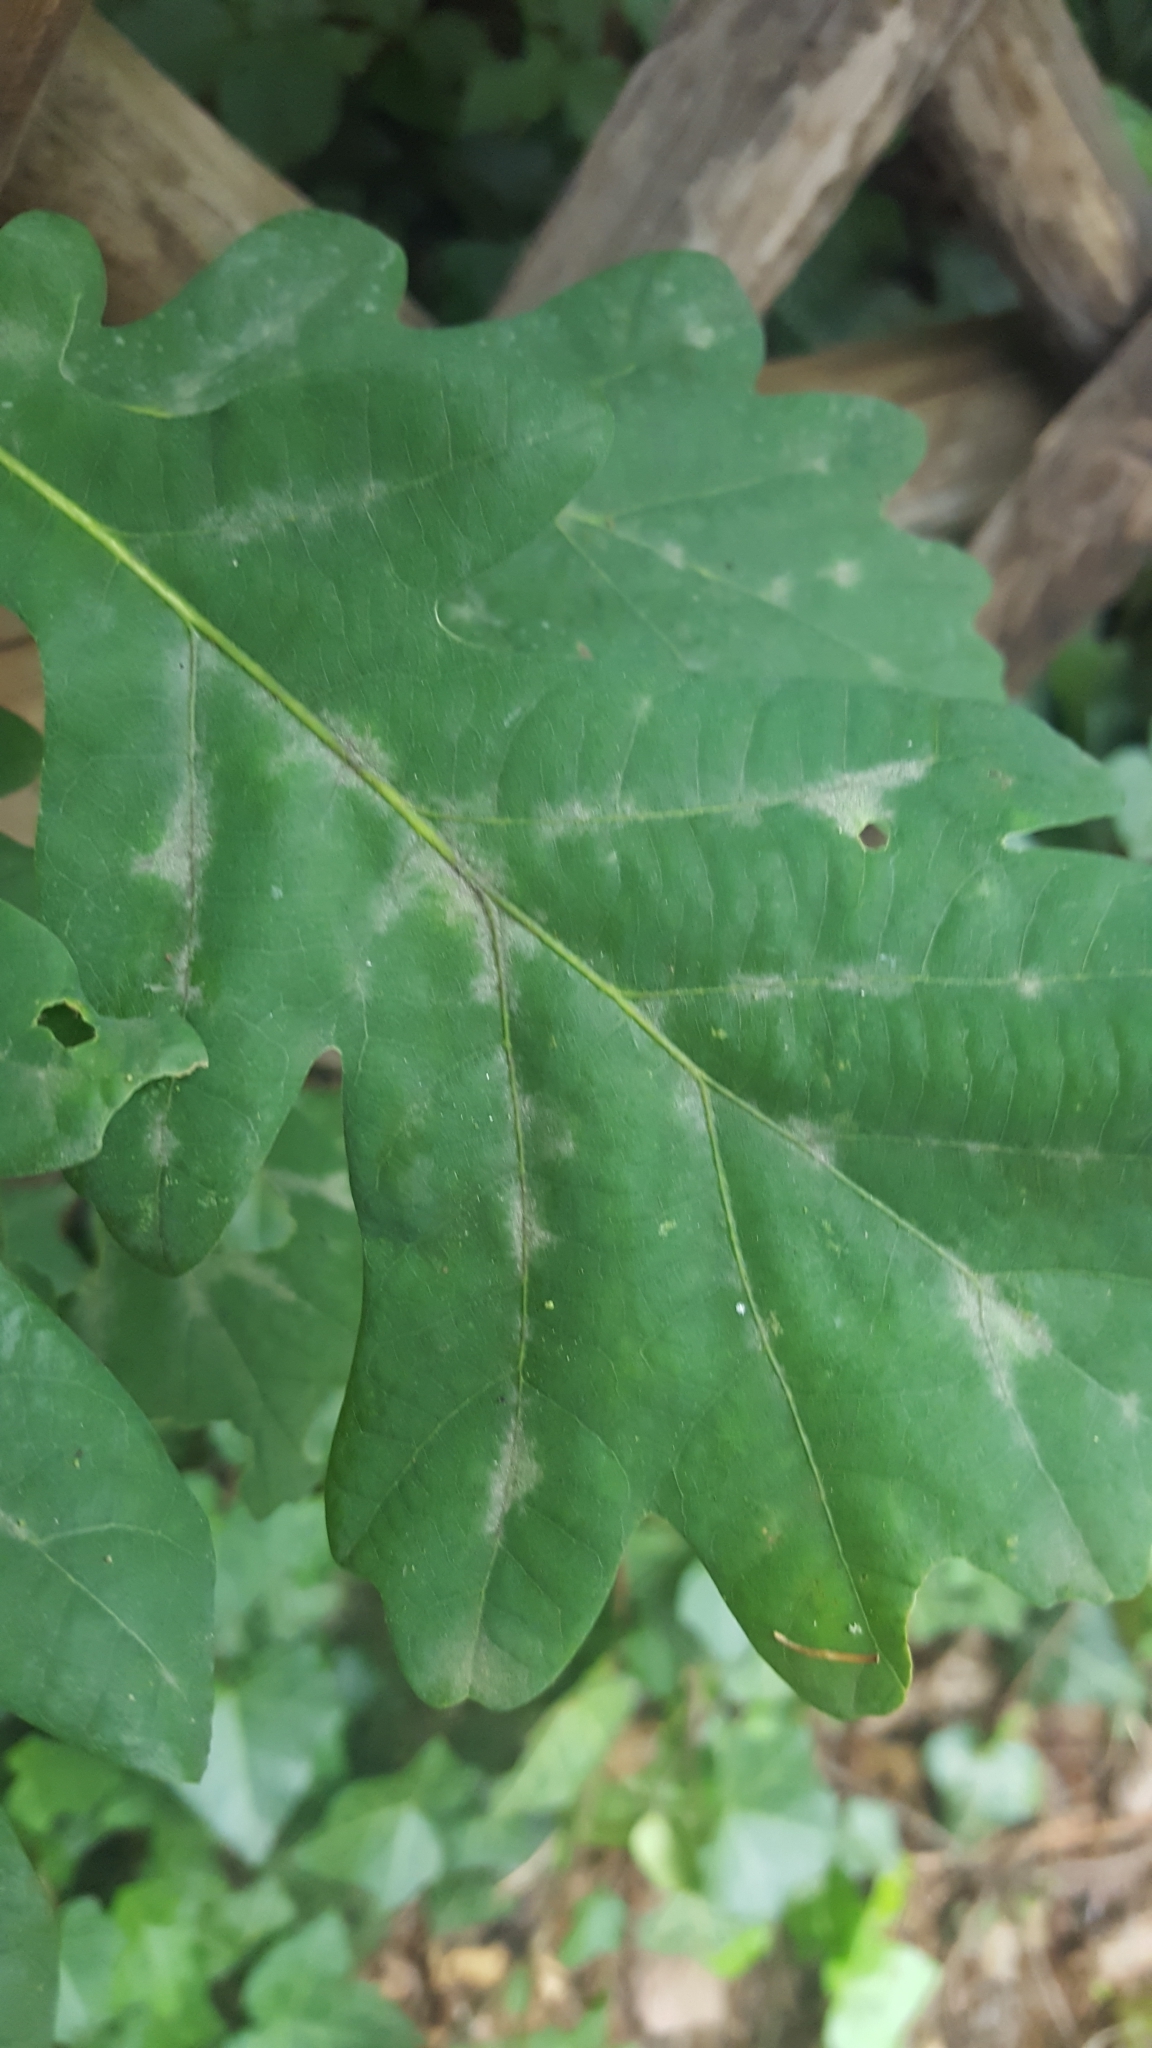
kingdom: Fungi
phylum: Ascomycota
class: Leotiomycetes
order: Helotiales
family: Erysiphaceae
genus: Erysiphe
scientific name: Erysiphe
